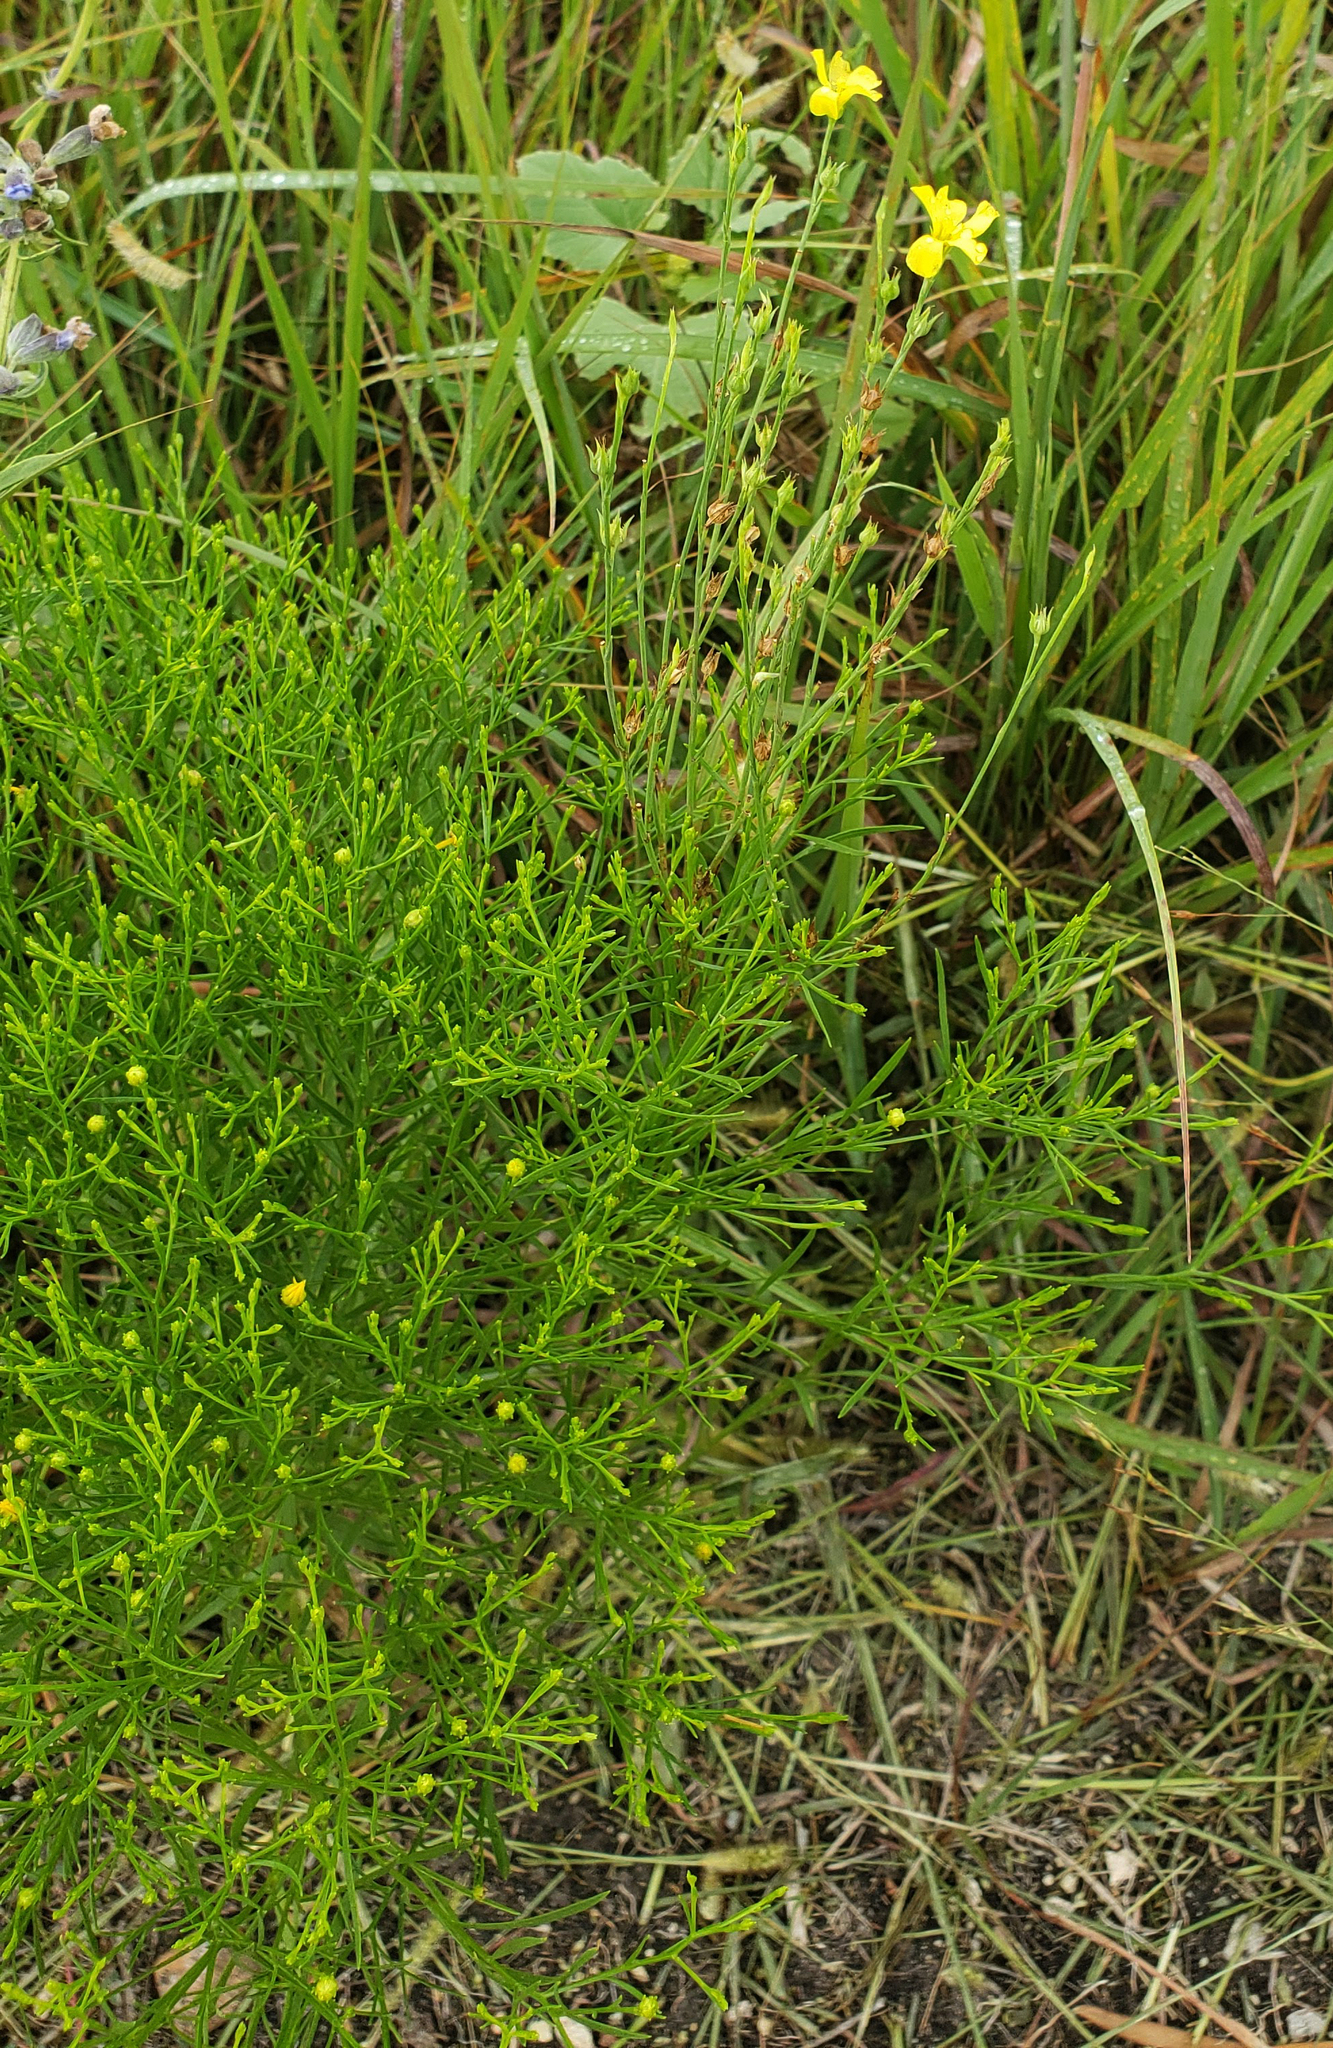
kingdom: Plantae
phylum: Tracheophyta
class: Magnoliopsida
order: Malpighiales
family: Linaceae
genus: Linum
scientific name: Linum sulcatum
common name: Grooved flax
